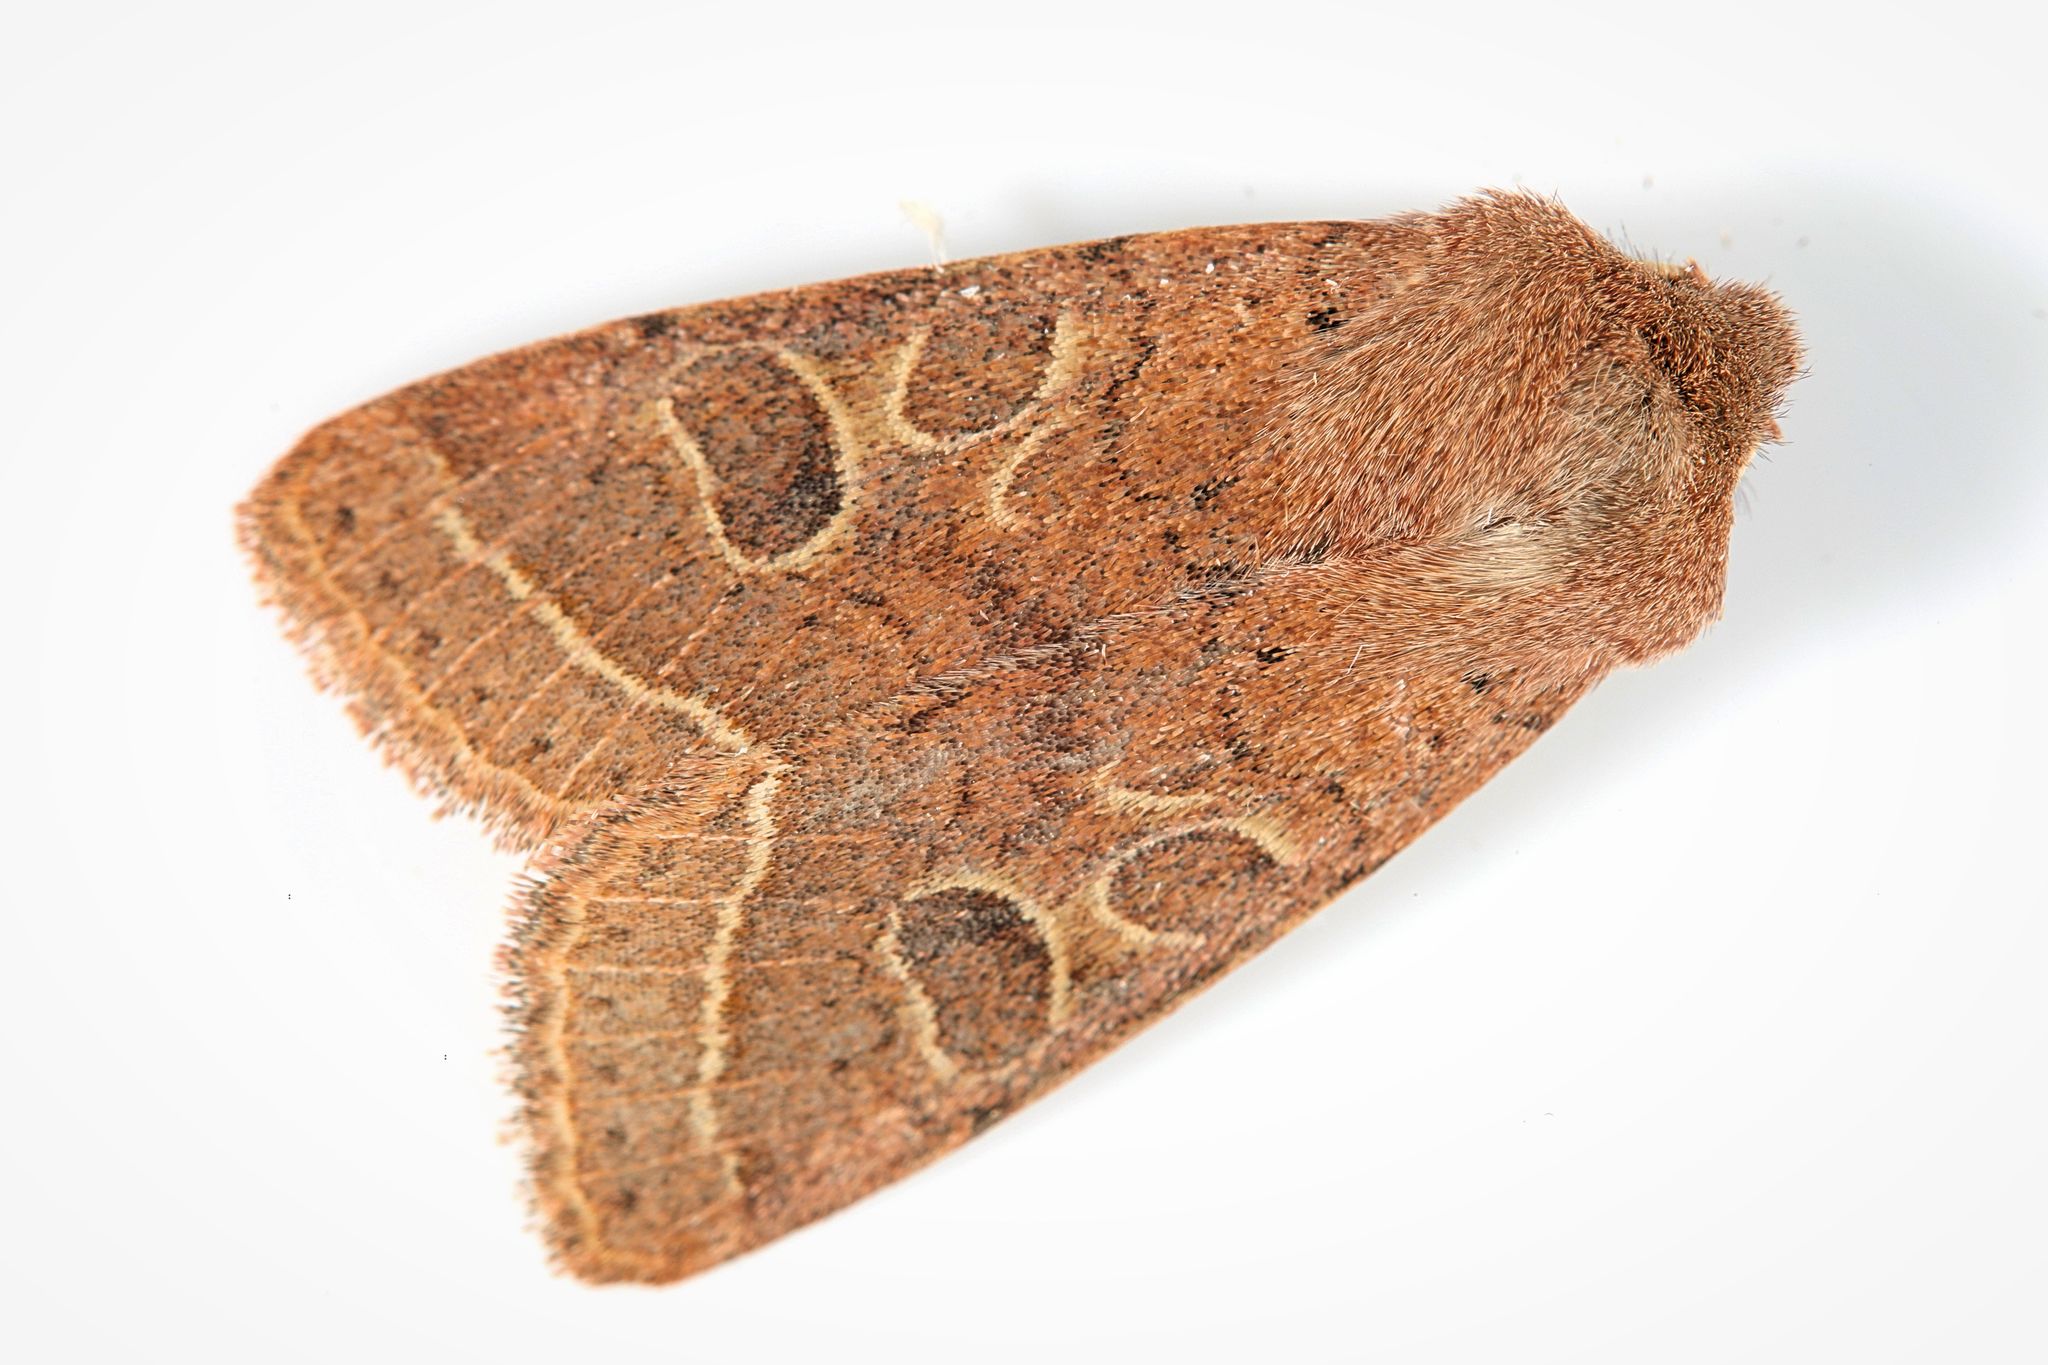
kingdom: Animalia
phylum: Arthropoda
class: Insecta
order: Lepidoptera
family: Noctuidae
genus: Orthosia
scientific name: Orthosia cerasi
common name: Common quaker
